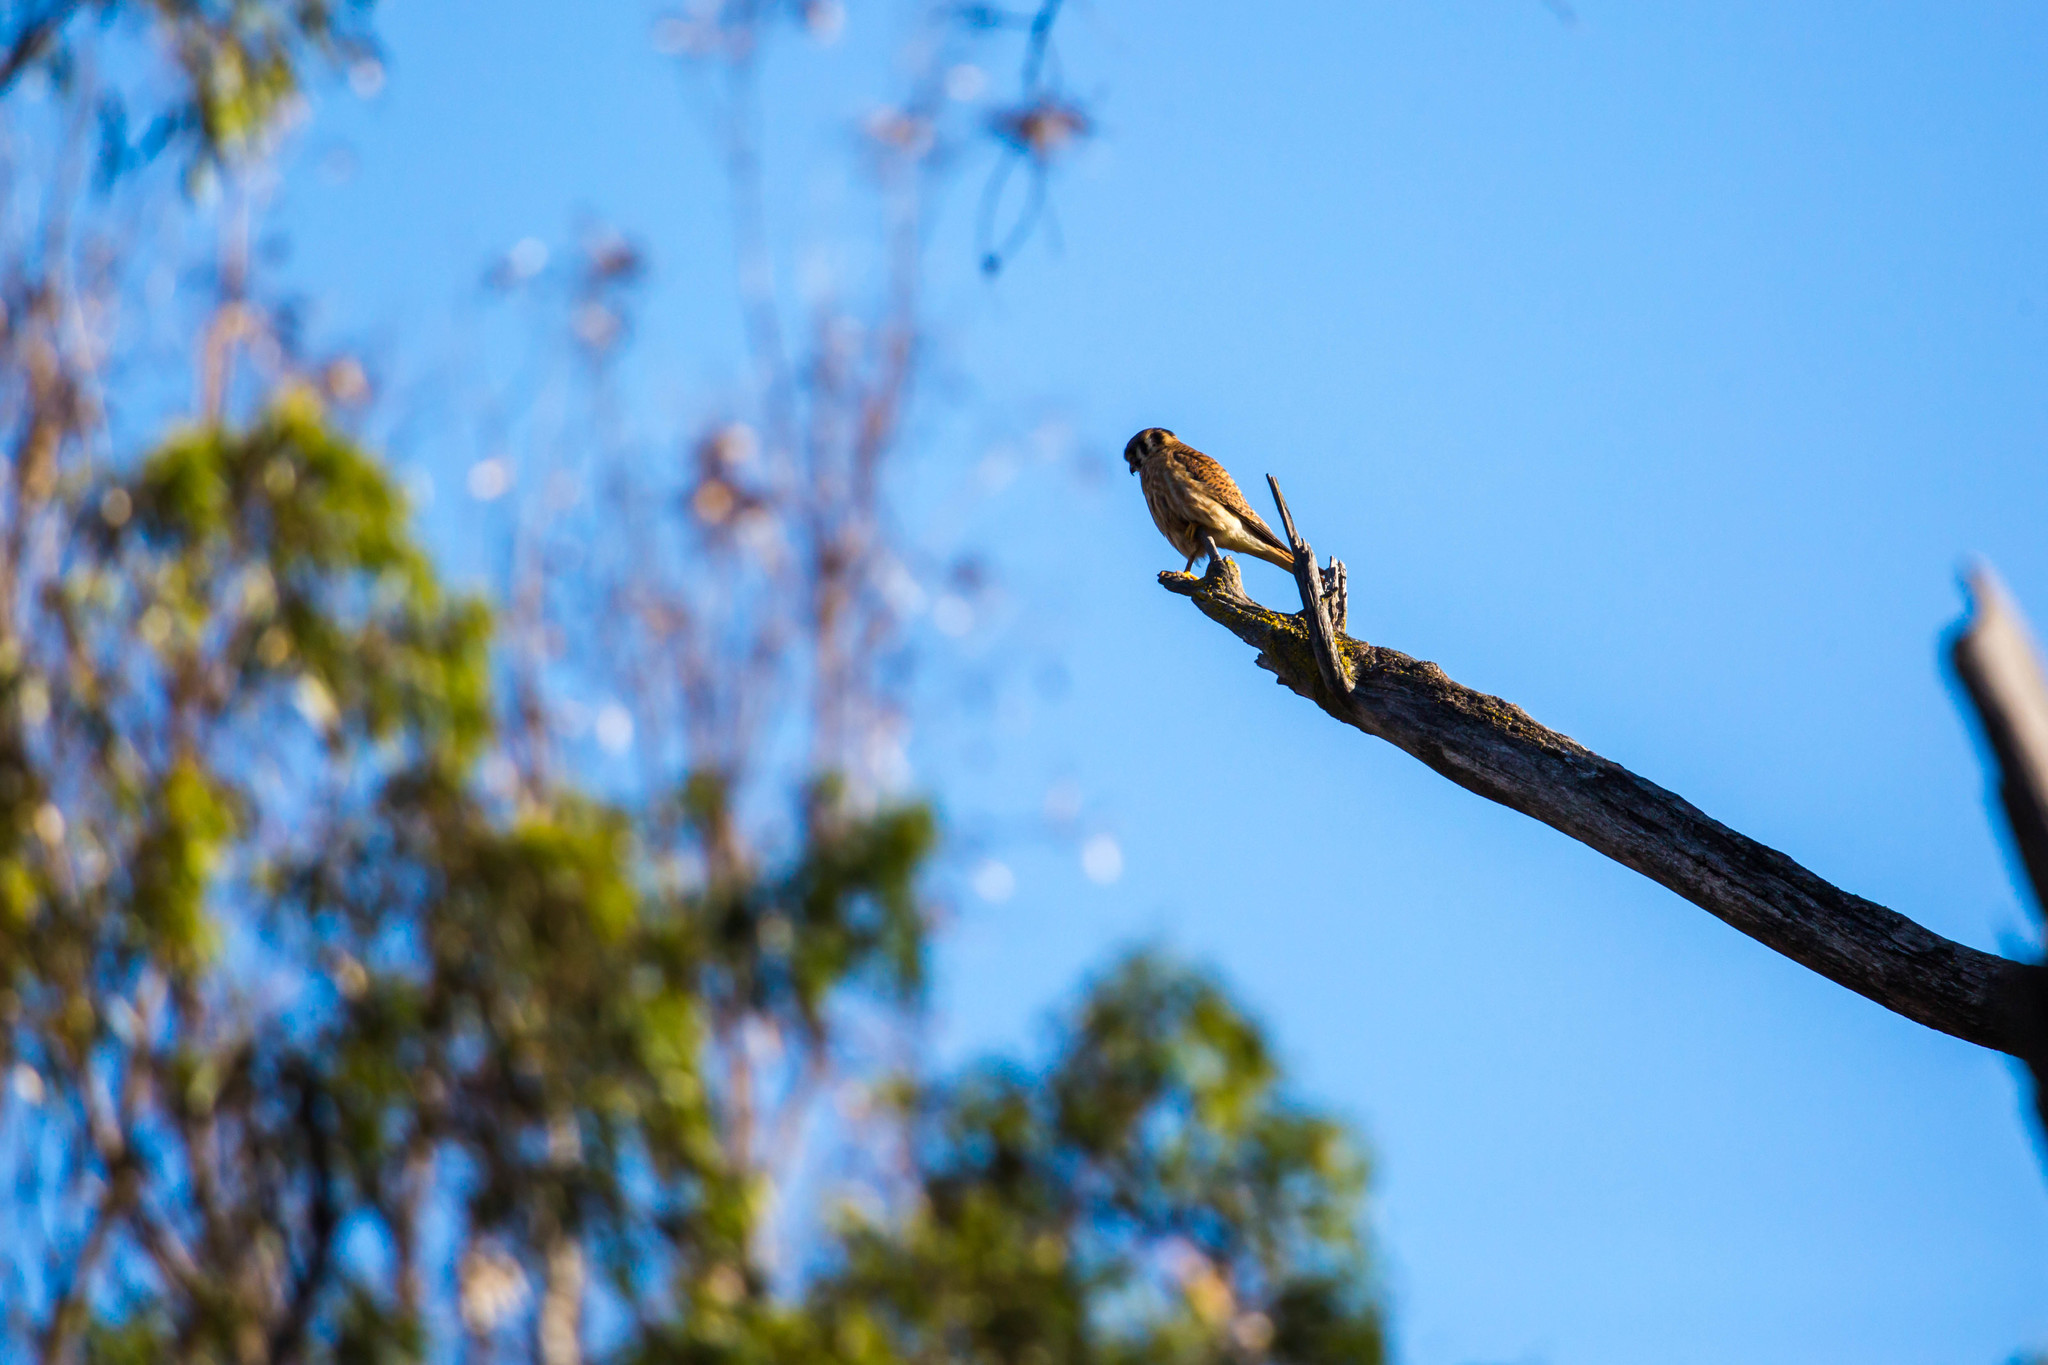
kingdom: Animalia
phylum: Chordata
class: Aves
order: Falconiformes
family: Falconidae
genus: Falco
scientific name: Falco sparverius
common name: American kestrel
